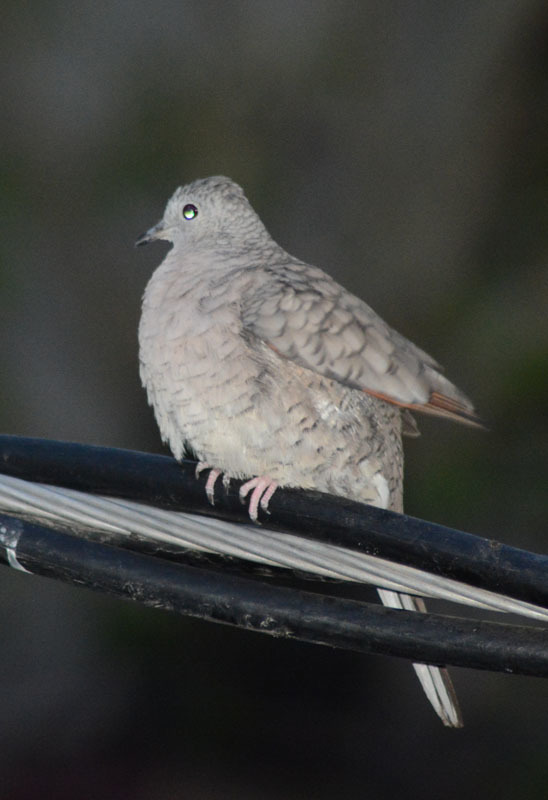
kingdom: Animalia
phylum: Chordata
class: Aves
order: Columbiformes
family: Columbidae
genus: Columbina
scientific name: Columbina inca
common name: Inca dove
